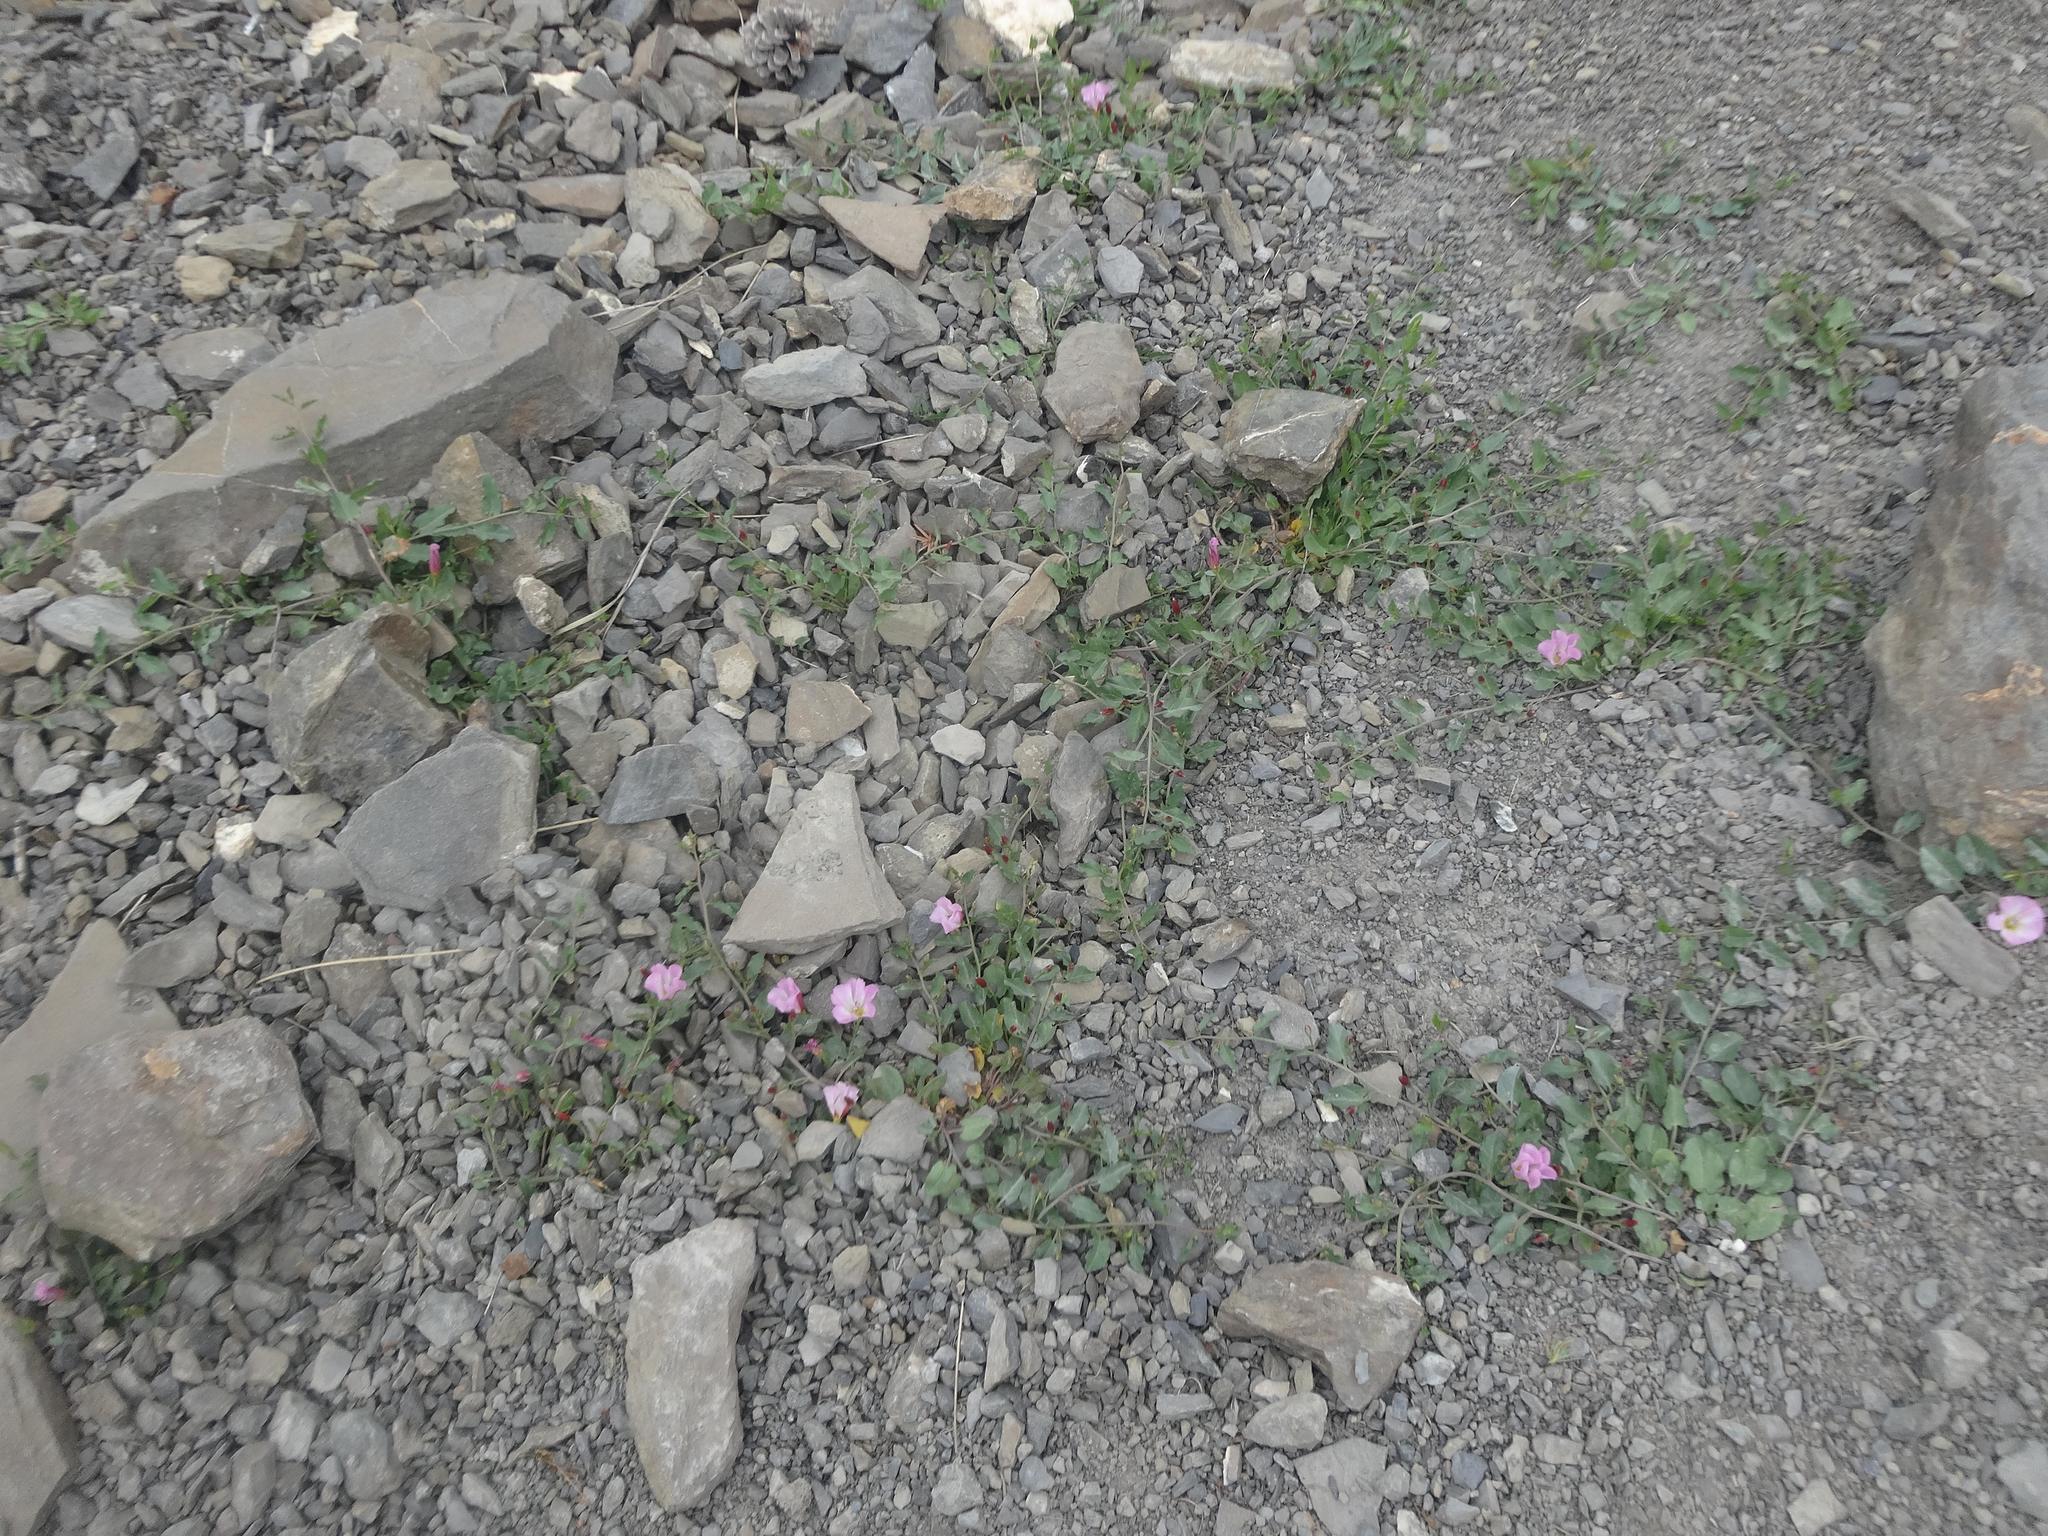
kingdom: Plantae
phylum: Tracheophyta
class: Magnoliopsida
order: Solanales
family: Convolvulaceae
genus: Convolvulus
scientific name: Convolvulus arvensis
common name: Field bindweed
